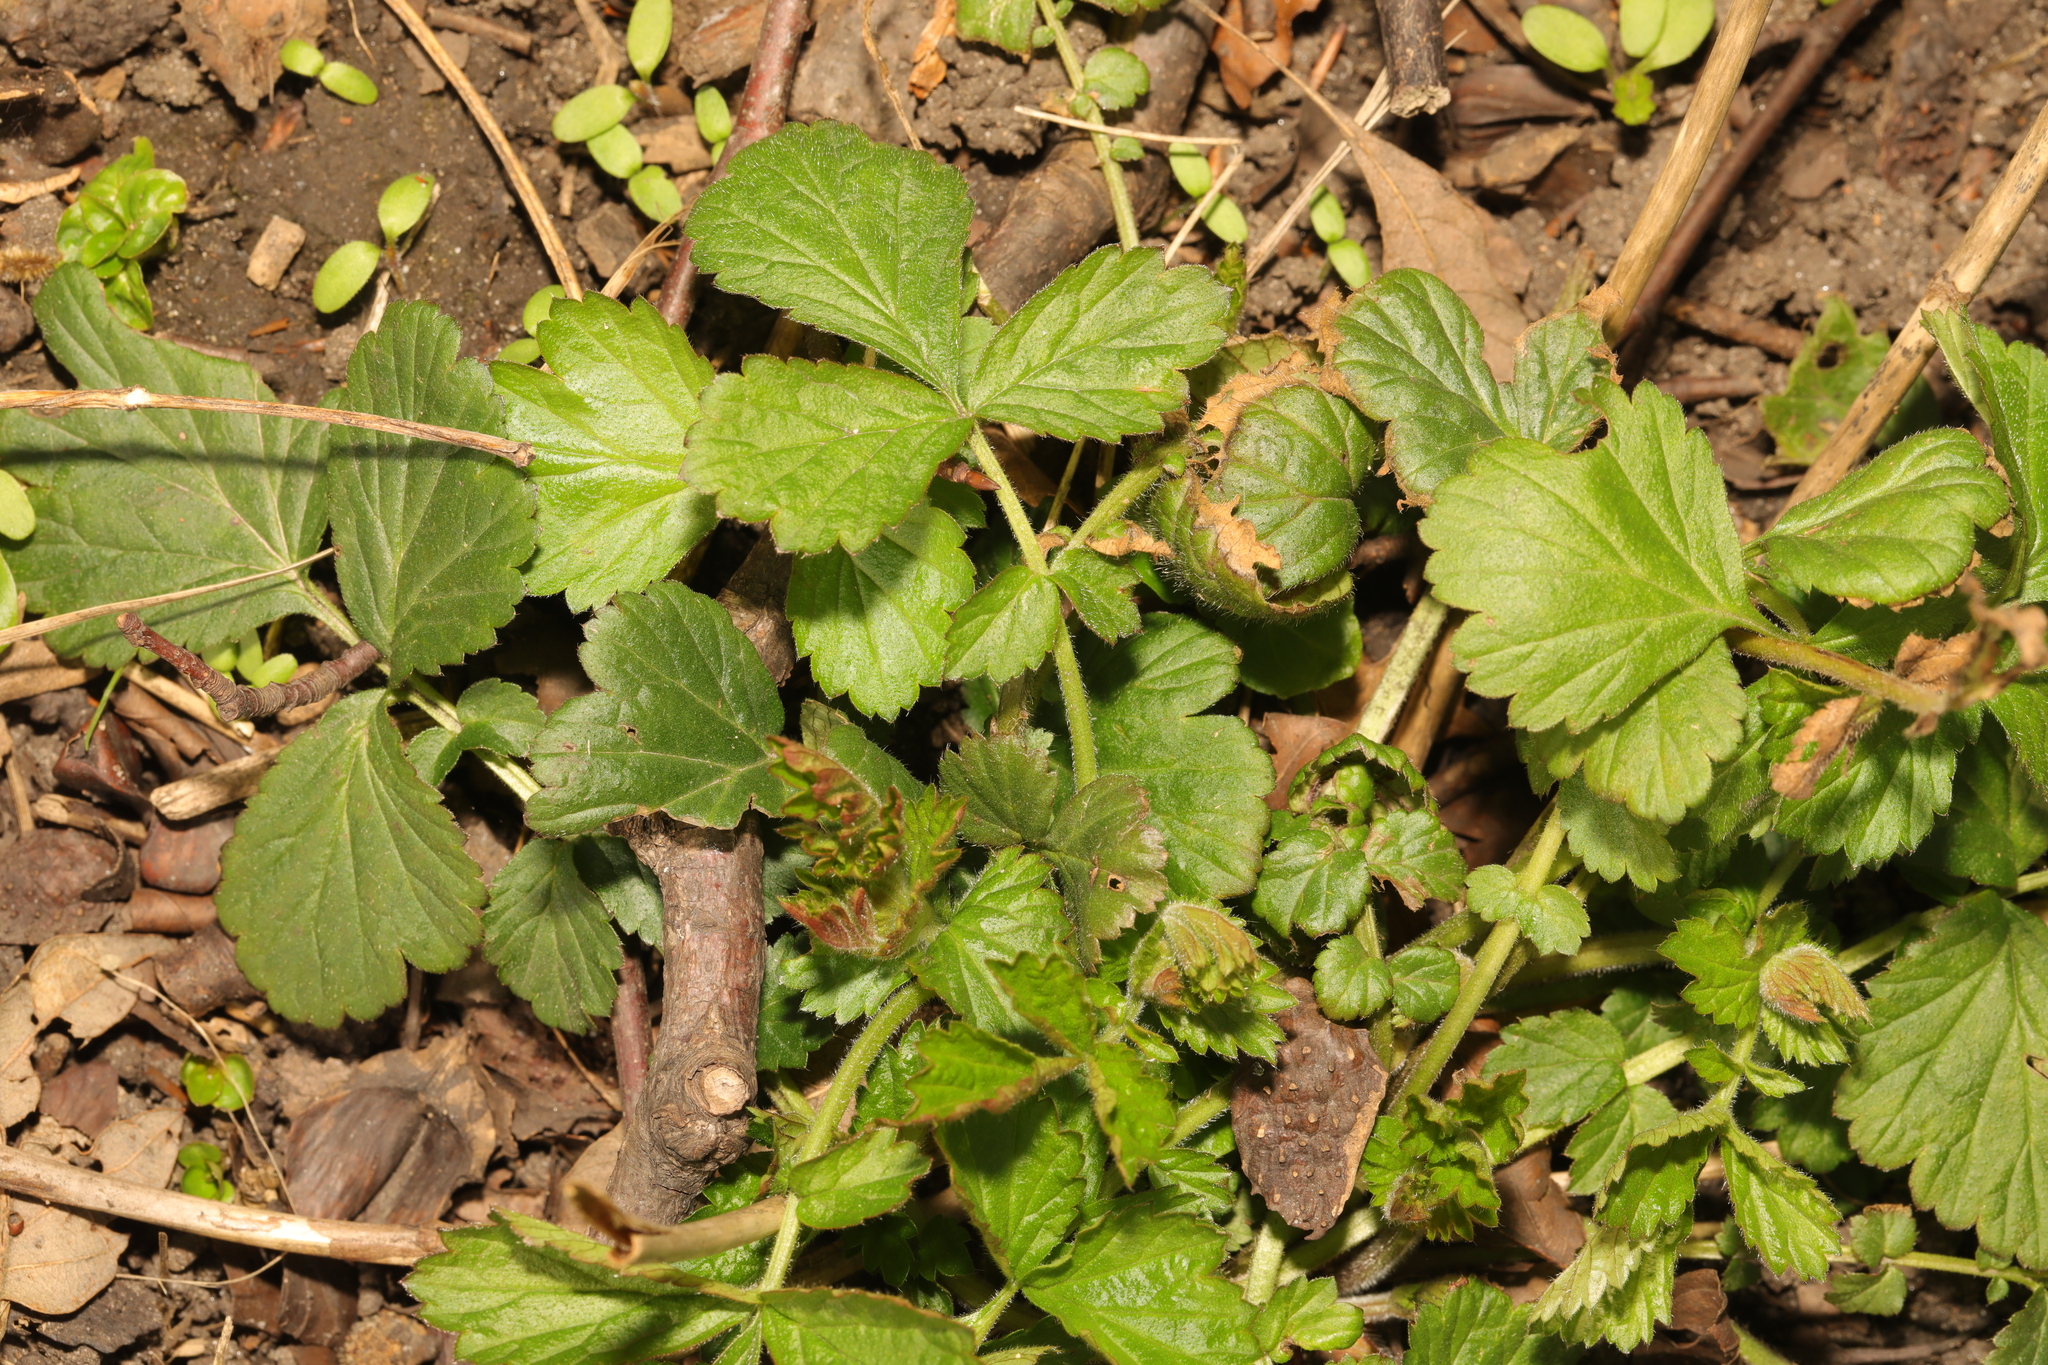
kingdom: Plantae
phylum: Tracheophyta
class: Magnoliopsida
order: Rosales
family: Rosaceae
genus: Geum
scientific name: Geum urbanum
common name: Wood avens
